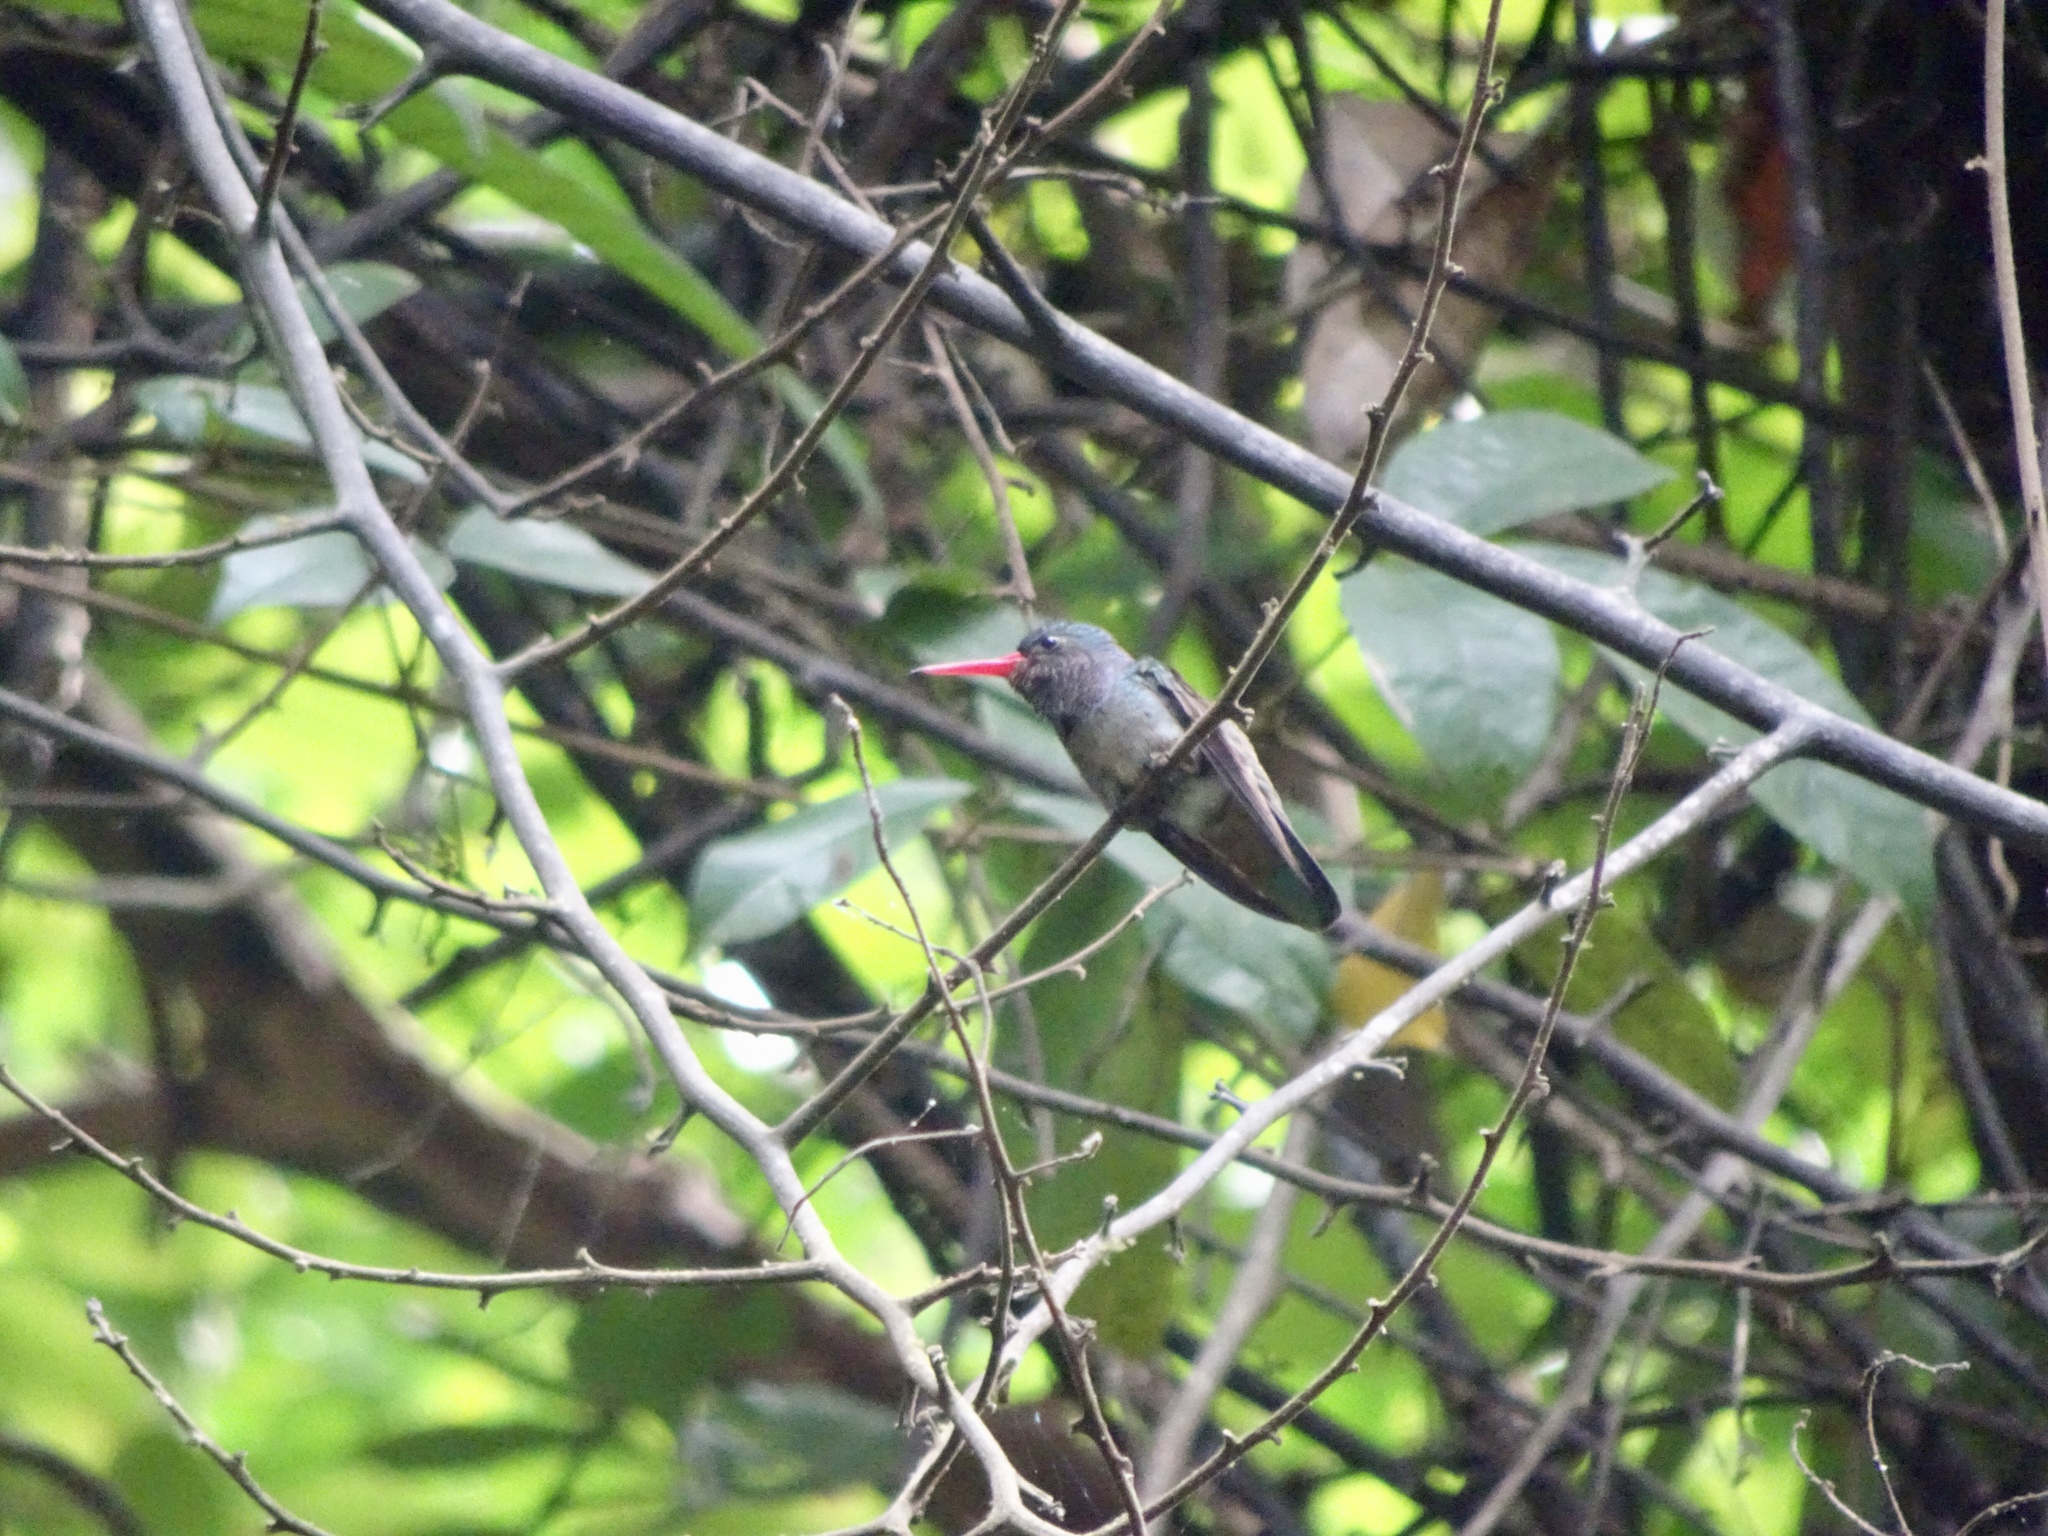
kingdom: Animalia
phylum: Chordata
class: Aves
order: Apodiformes
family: Trochilidae
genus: Chlorestes
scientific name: Chlorestes eliciae
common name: Blue-throated sapphire
